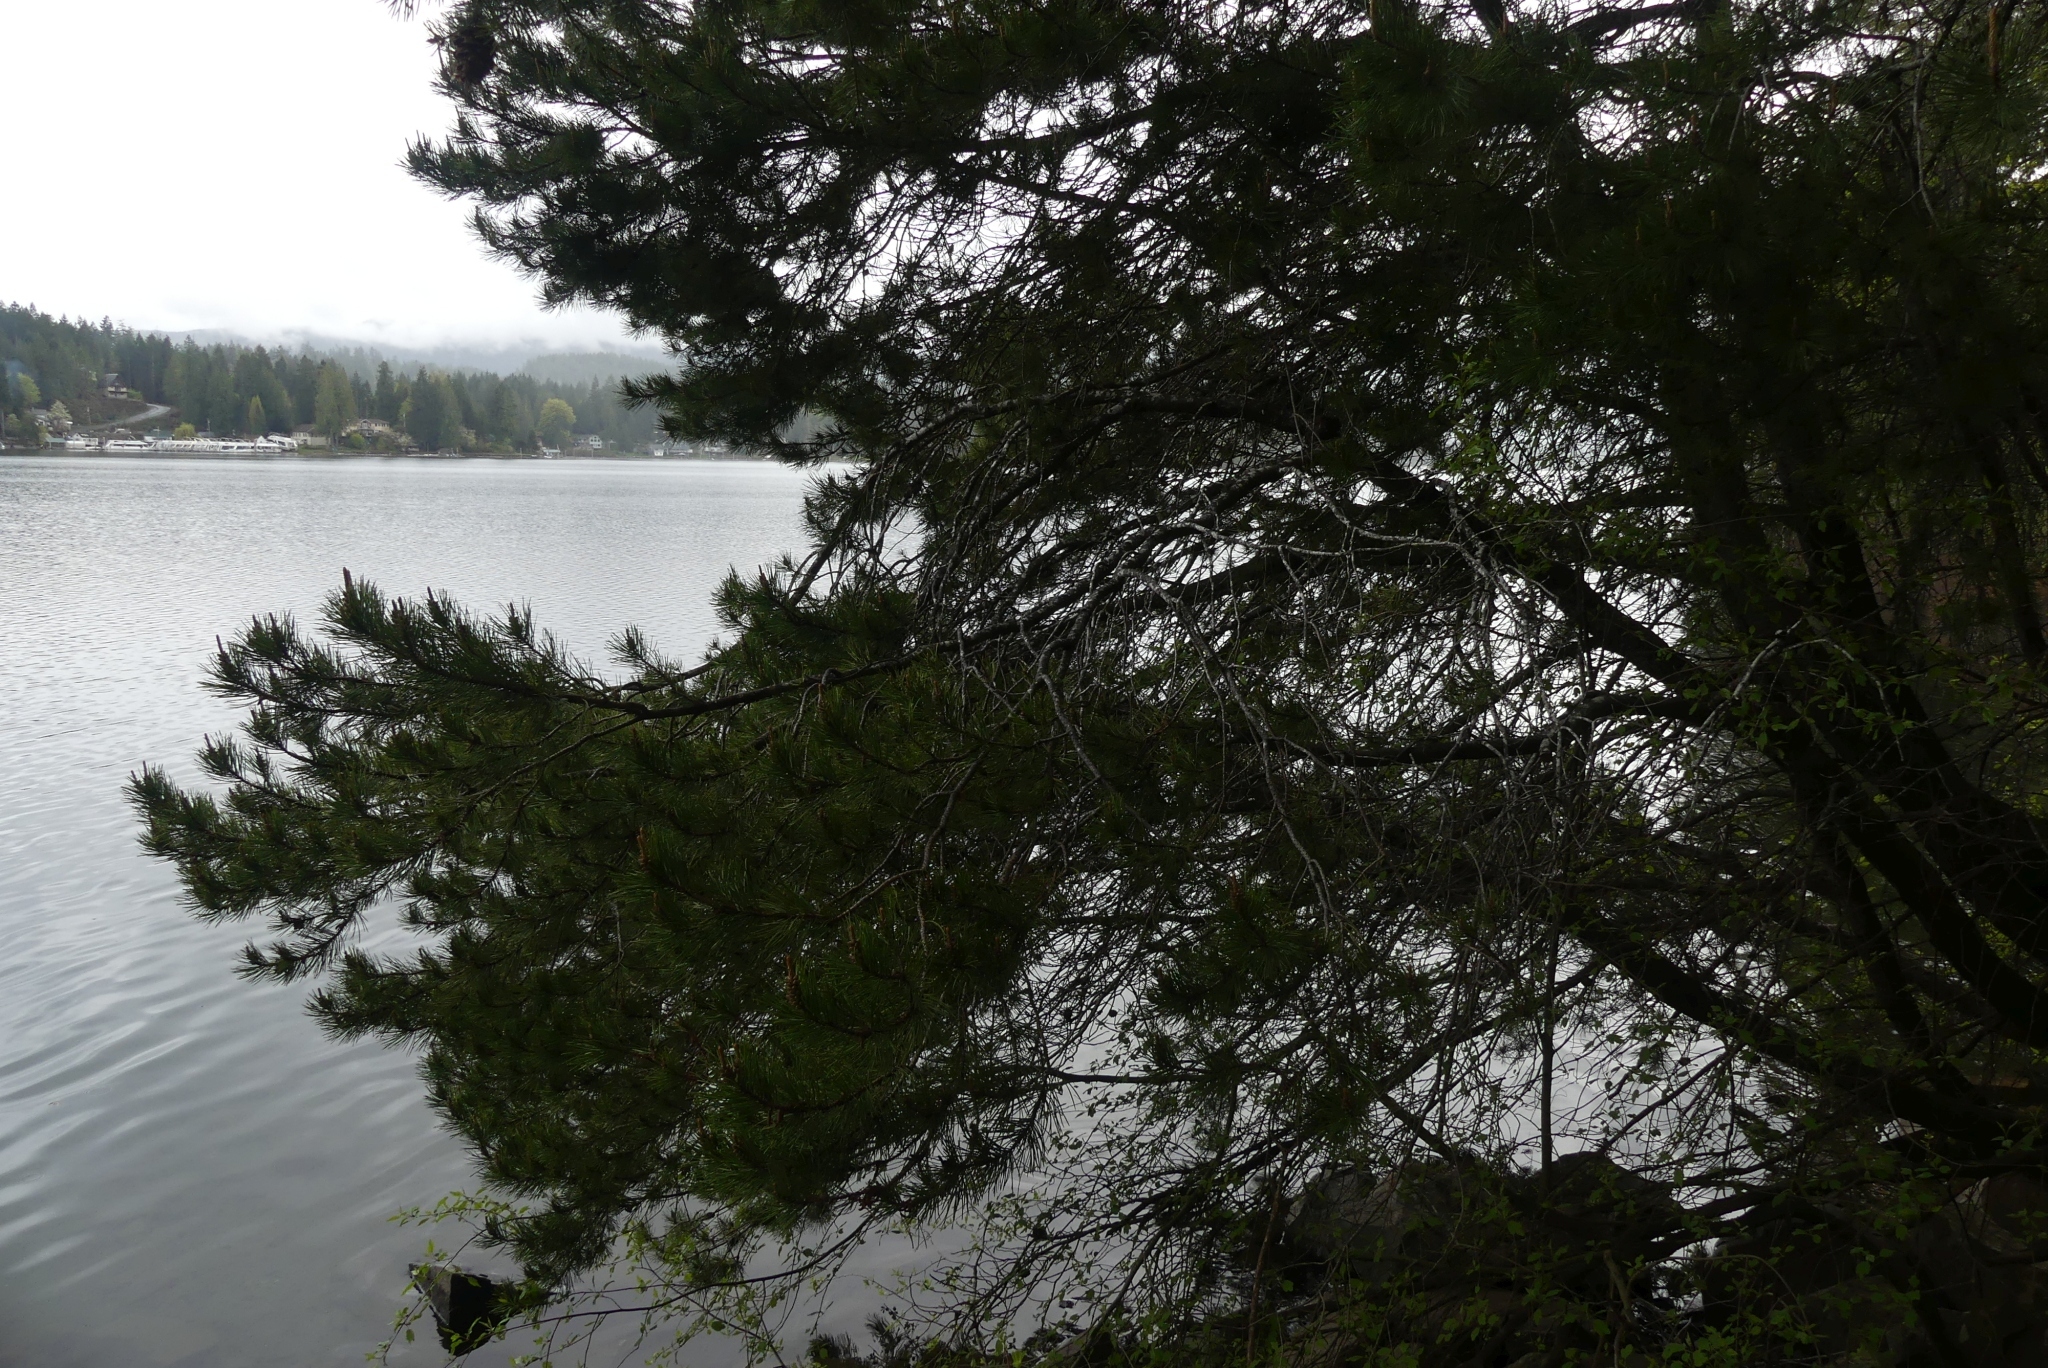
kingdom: Plantae
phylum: Tracheophyta
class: Pinopsida
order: Pinales
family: Pinaceae
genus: Pinus
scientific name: Pinus contorta
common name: Lodgepole pine
